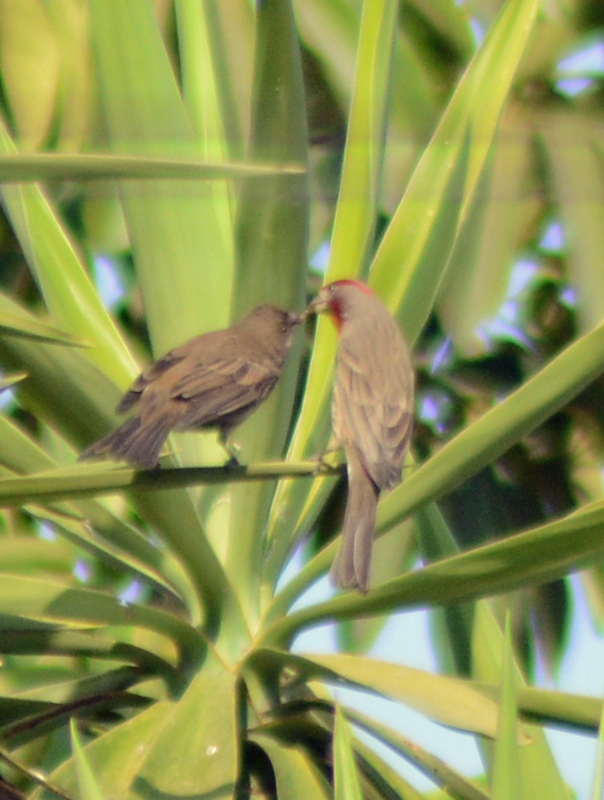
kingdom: Animalia
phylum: Chordata
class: Aves
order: Passeriformes
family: Fringillidae
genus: Haemorhous
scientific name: Haemorhous mexicanus
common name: House finch
